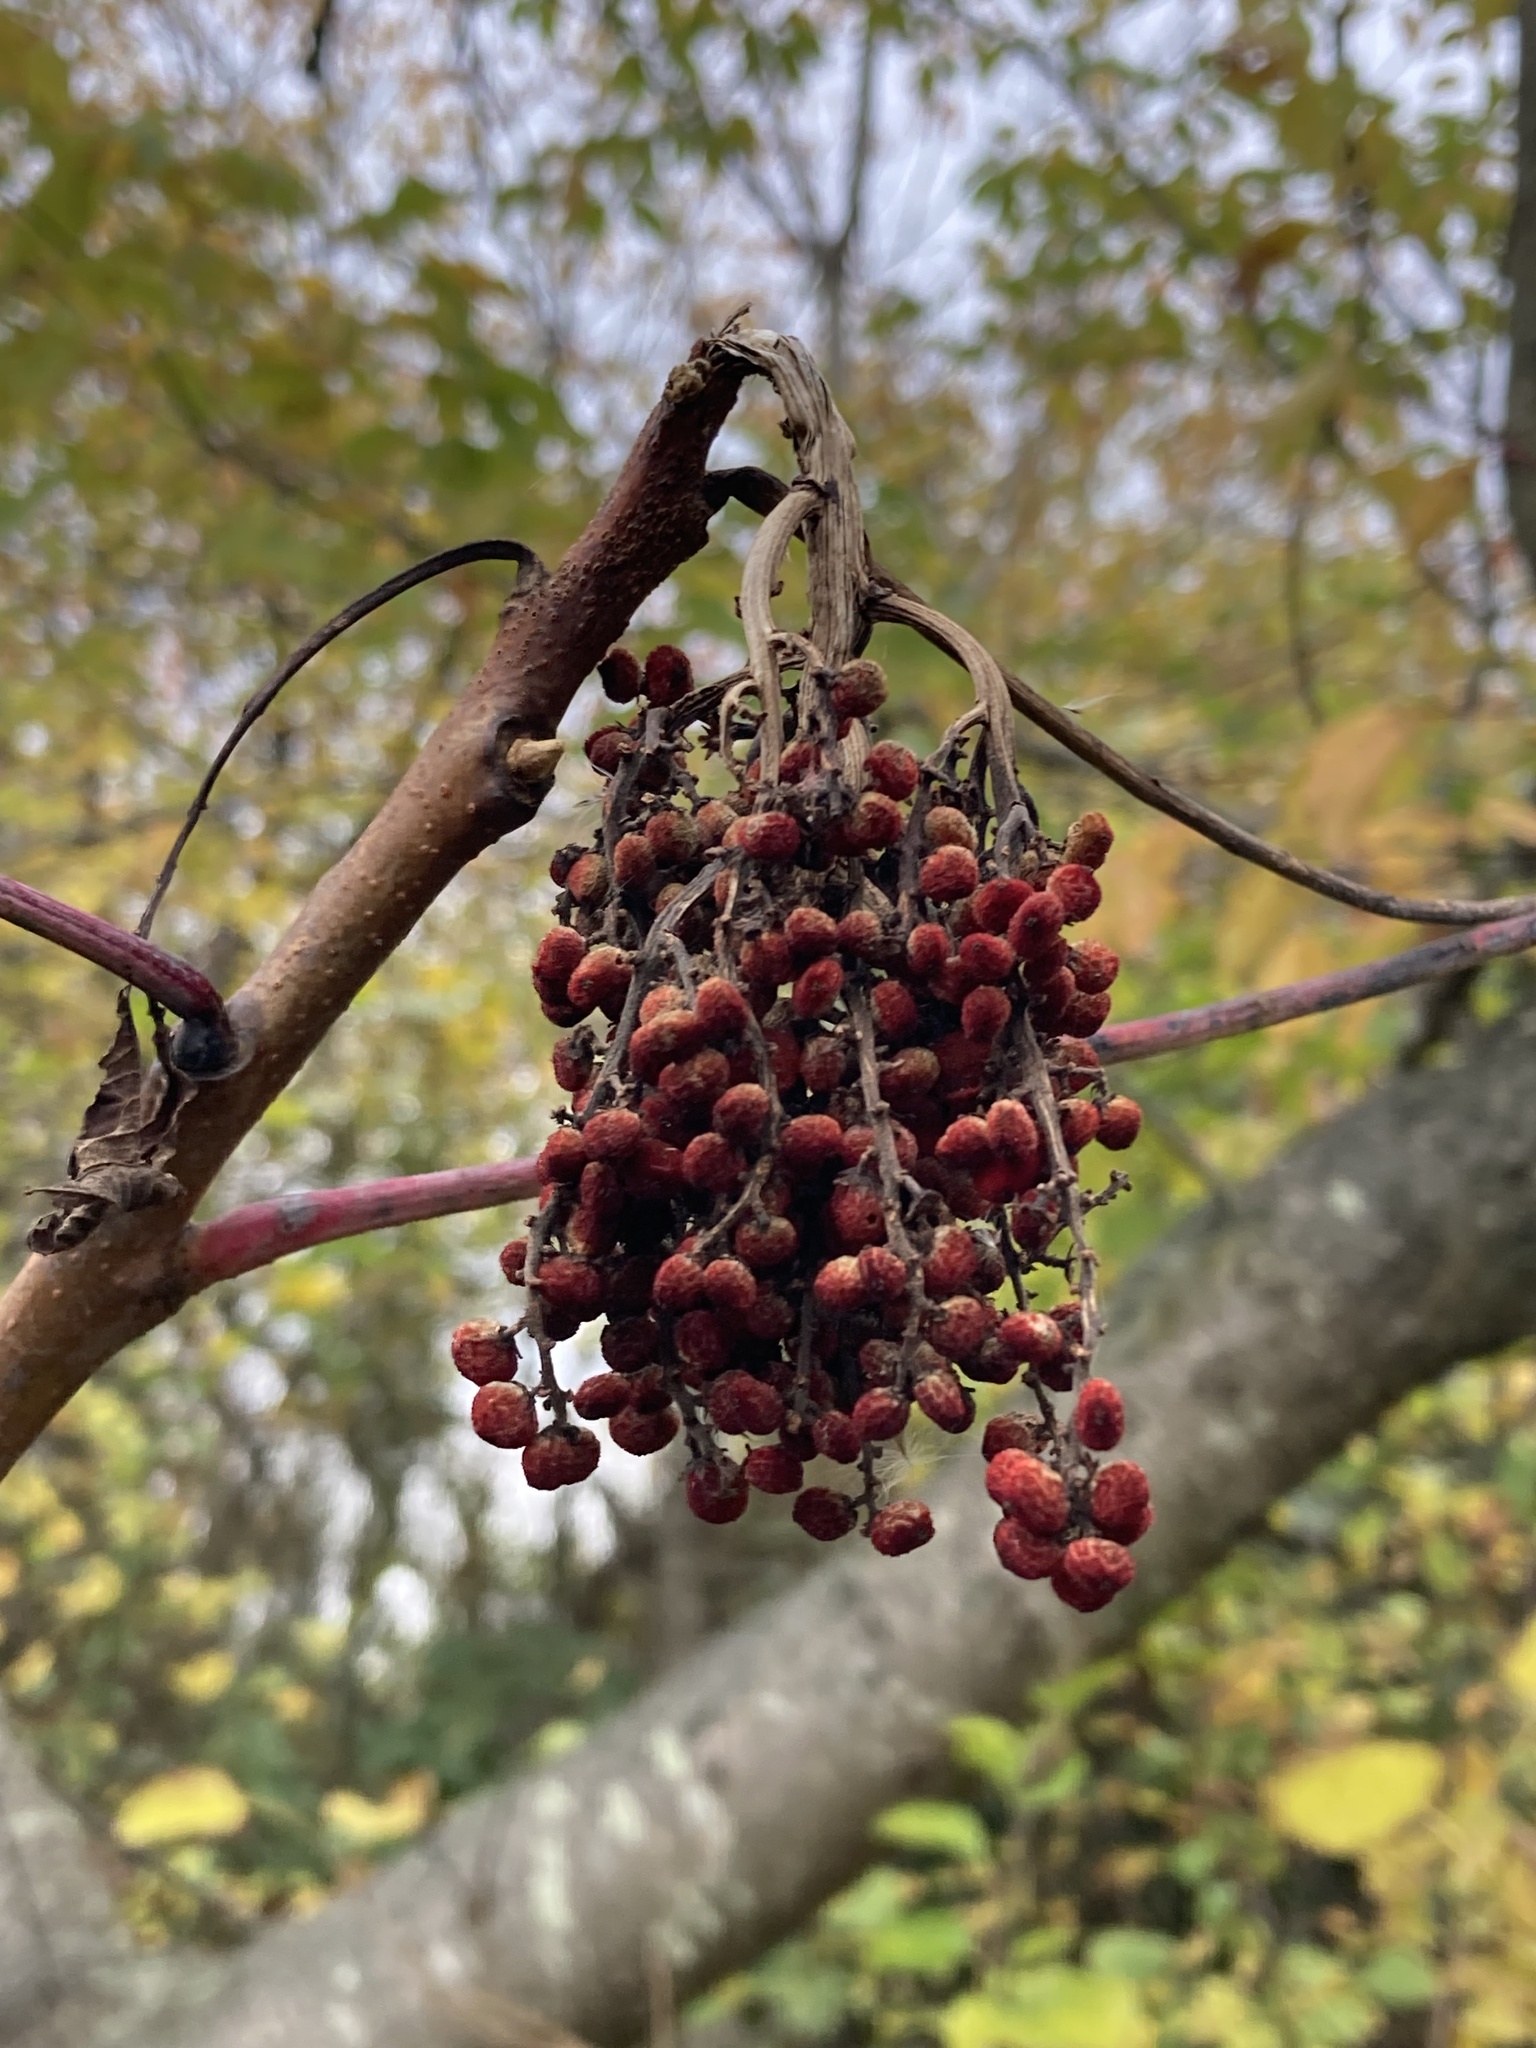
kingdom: Plantae
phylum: Tracheophyta
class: Magnoliopsida
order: Sapindales
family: Anacardiaceae
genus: Rhus
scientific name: Rhus glabra
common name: Scarlet sumac
